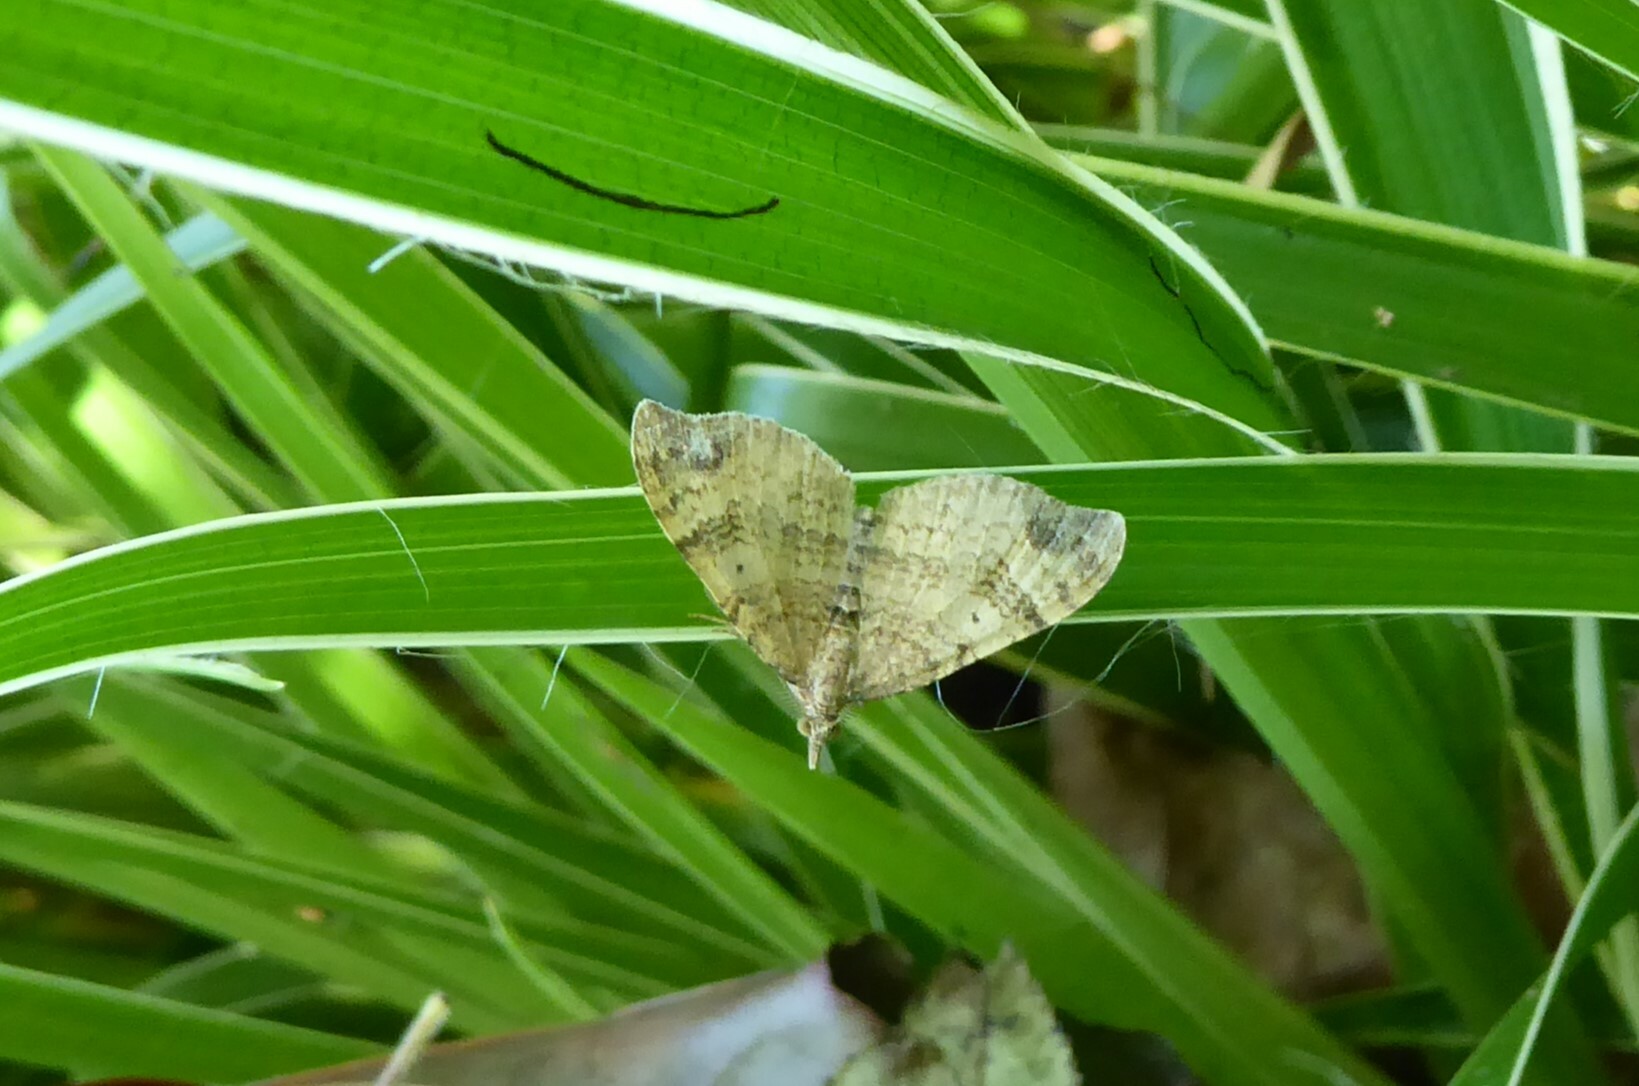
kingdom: Animalia
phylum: Arthropoda
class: Insecta
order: Lepidoptera
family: Geometridae
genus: Homodotis
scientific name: Homodotis megaspilata
